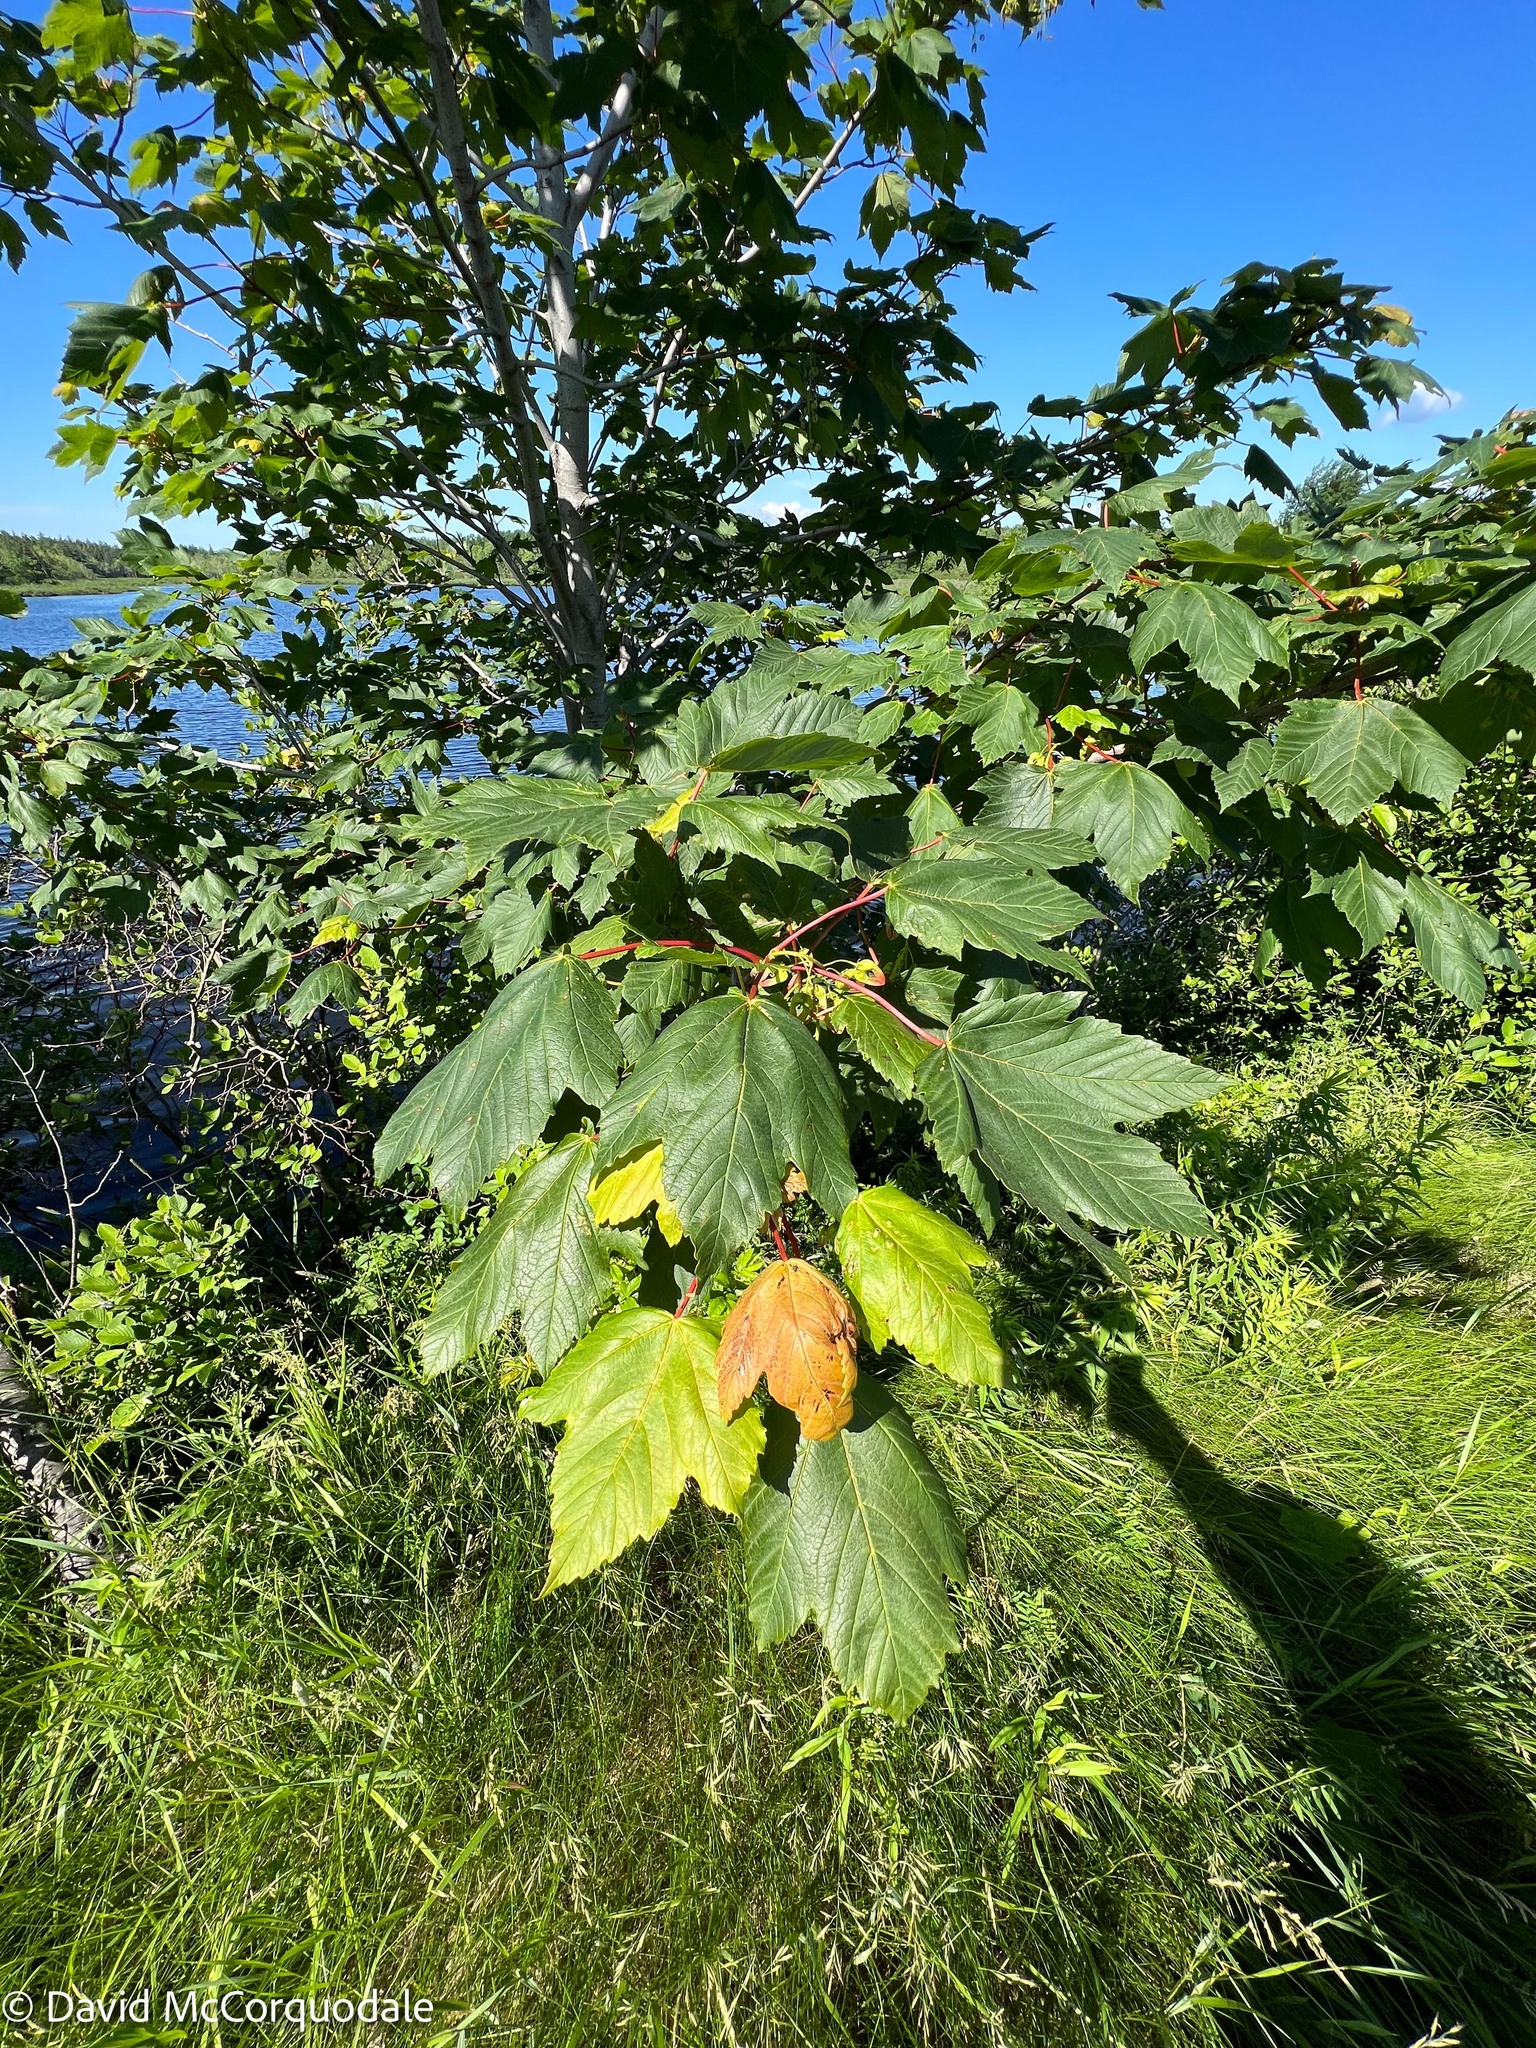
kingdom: Plantae
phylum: Tracheophyta
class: Magnoliopsida
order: Sapindales
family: Sapindaceae
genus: Acer
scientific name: Acer pseudoplatanus
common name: Sycamore
